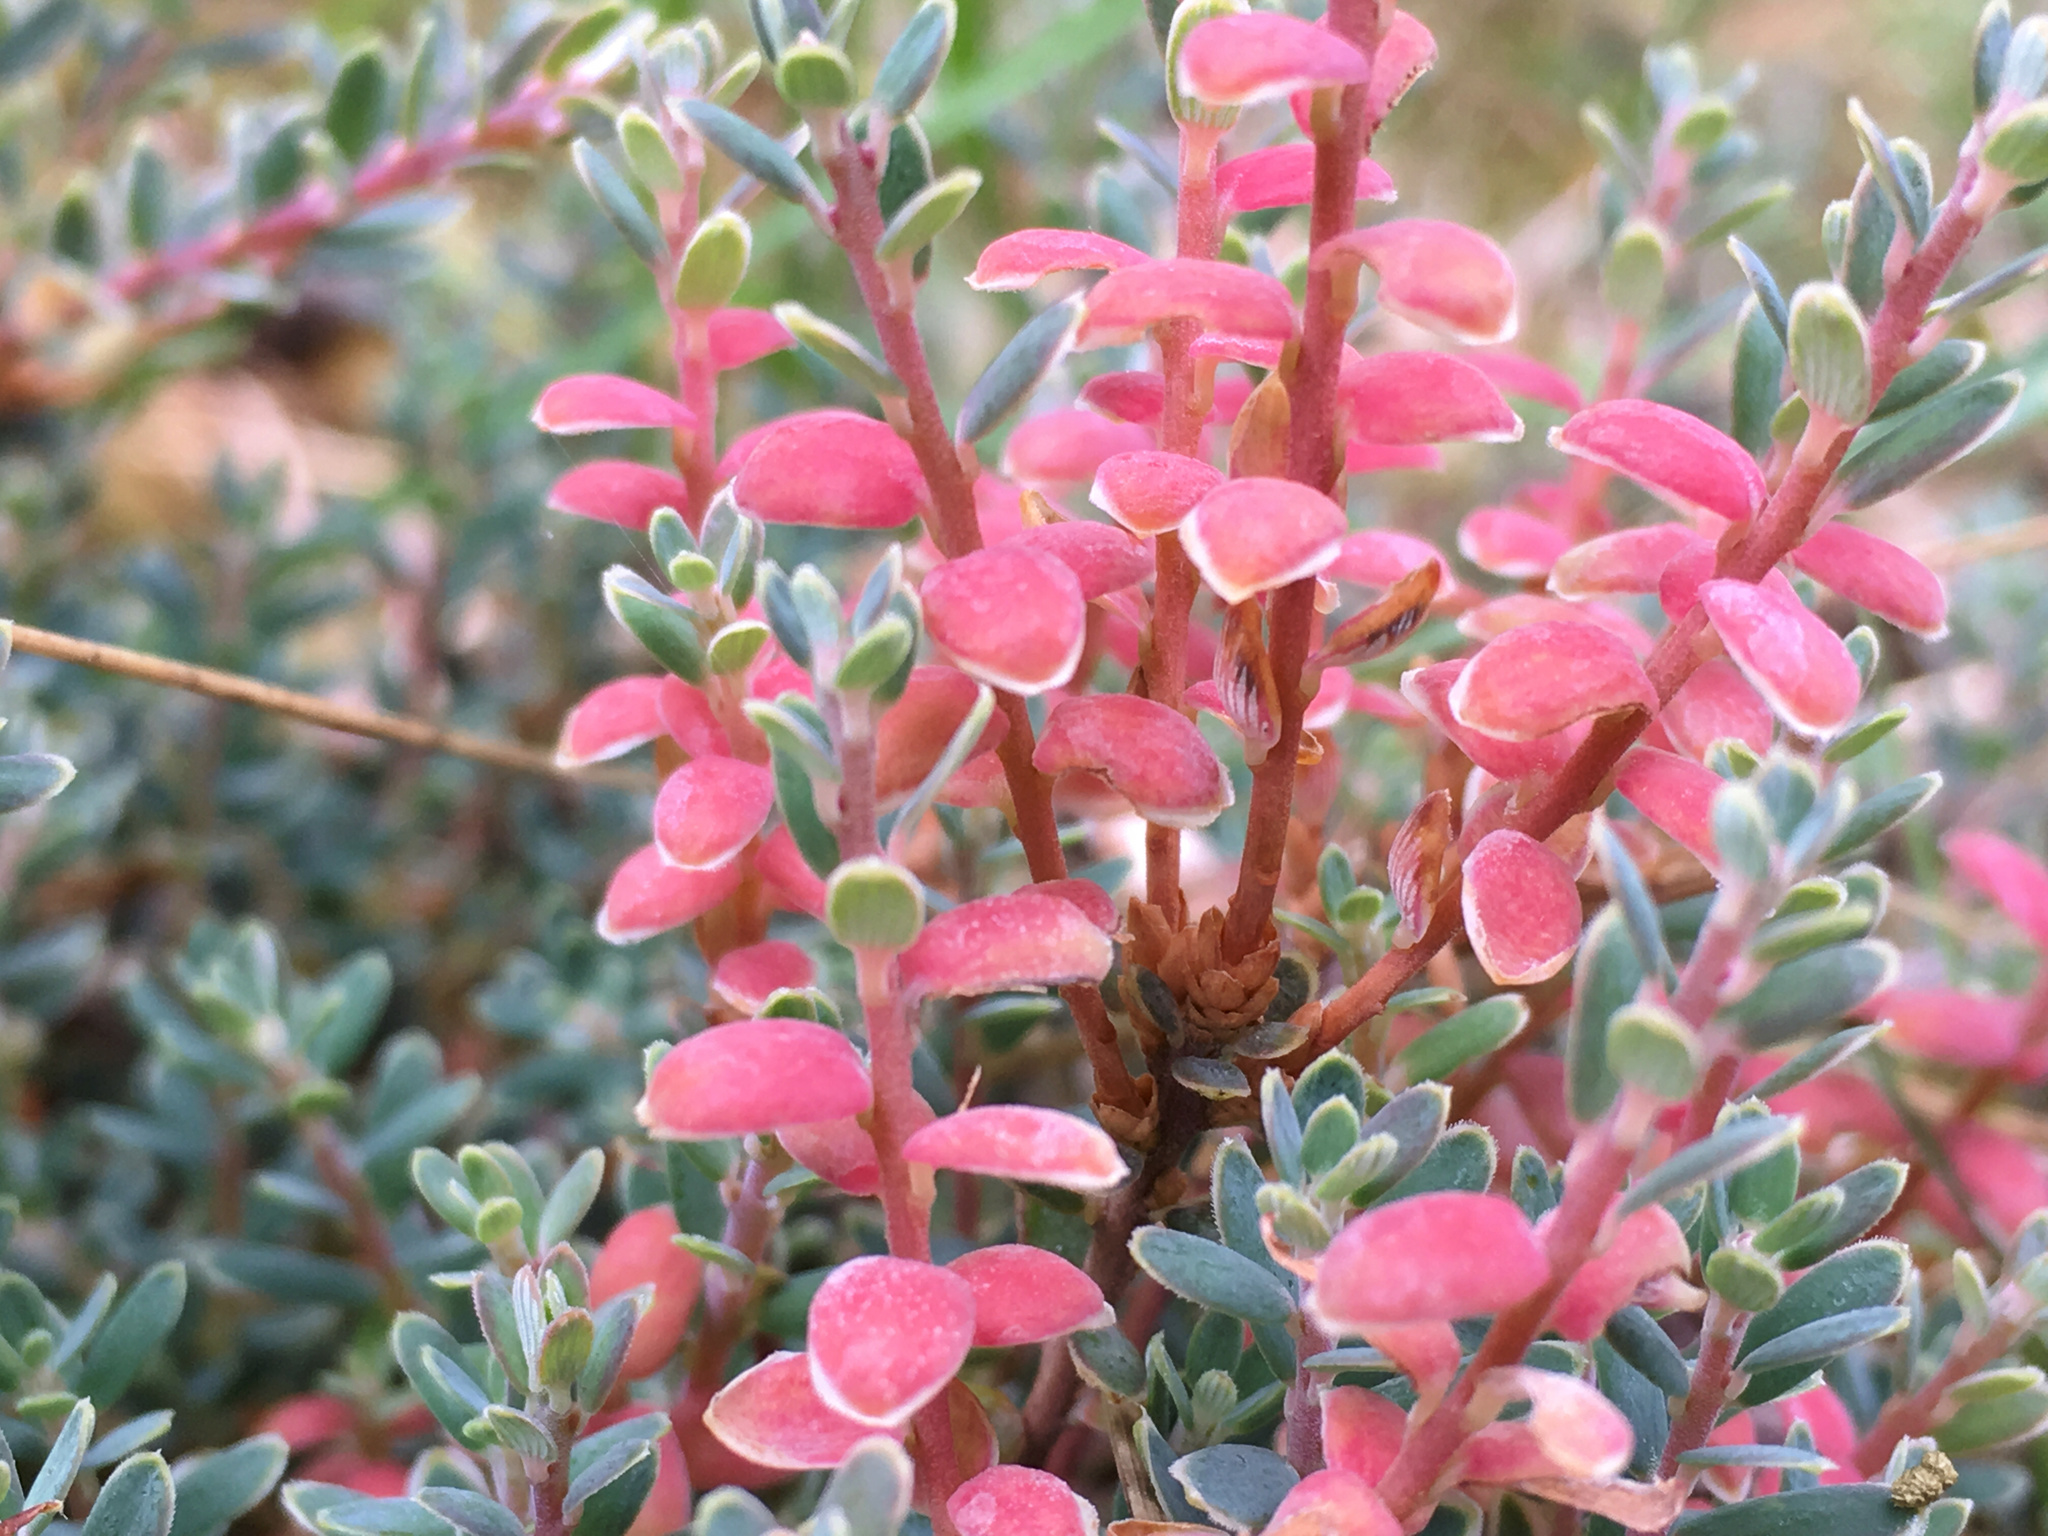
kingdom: Fungi
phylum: Basidiomycota
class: Exobasidiomycetes
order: Exobasidiales
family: Exobasidiaceae
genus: Exobasidium
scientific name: Exobasidium pentachondrae
